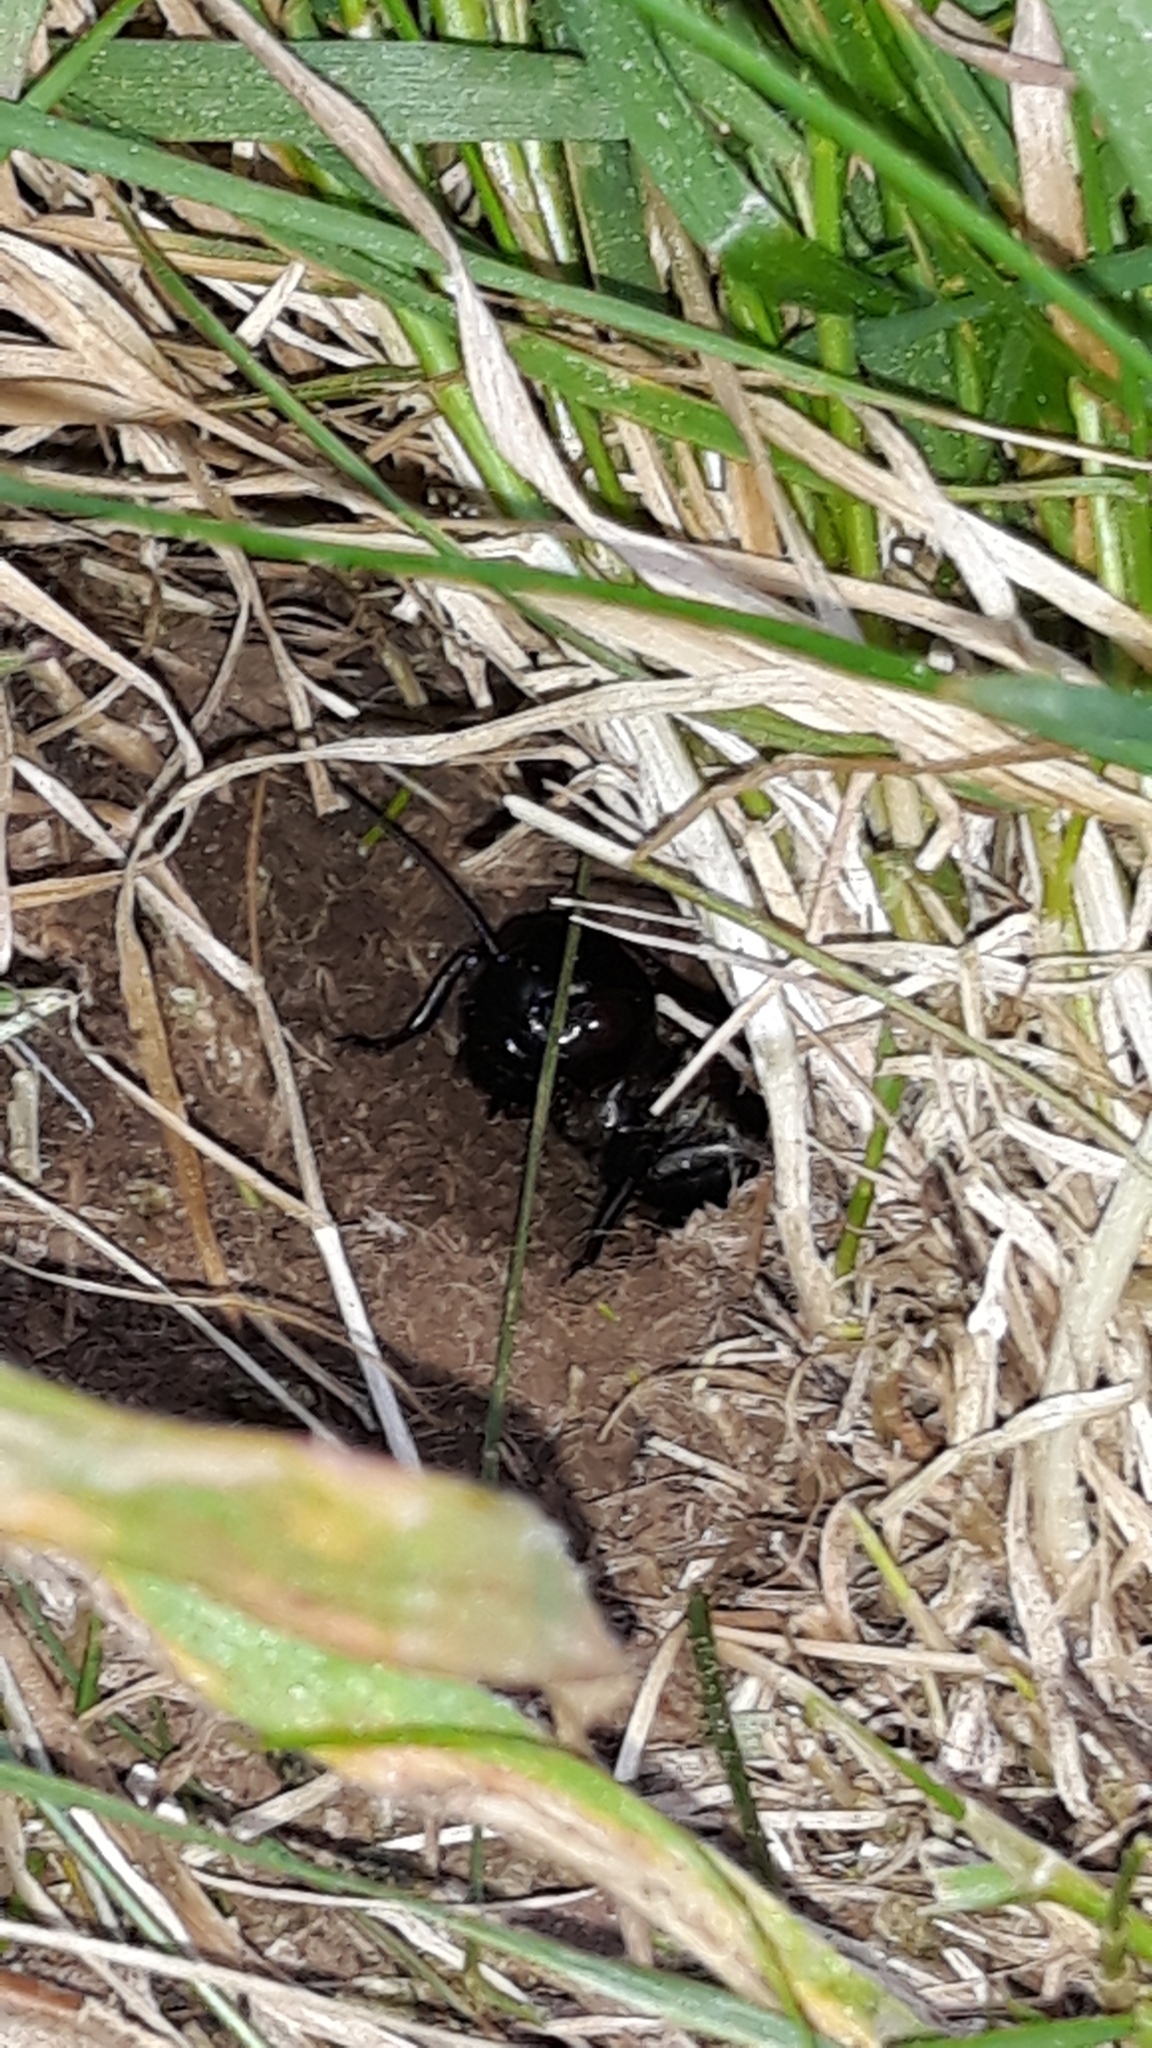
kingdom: Animalia
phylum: Arthropoda
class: Insecta
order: Orthoptera
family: Gryllidae
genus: Gryllus
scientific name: Gryllus campestris
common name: Field cricket
